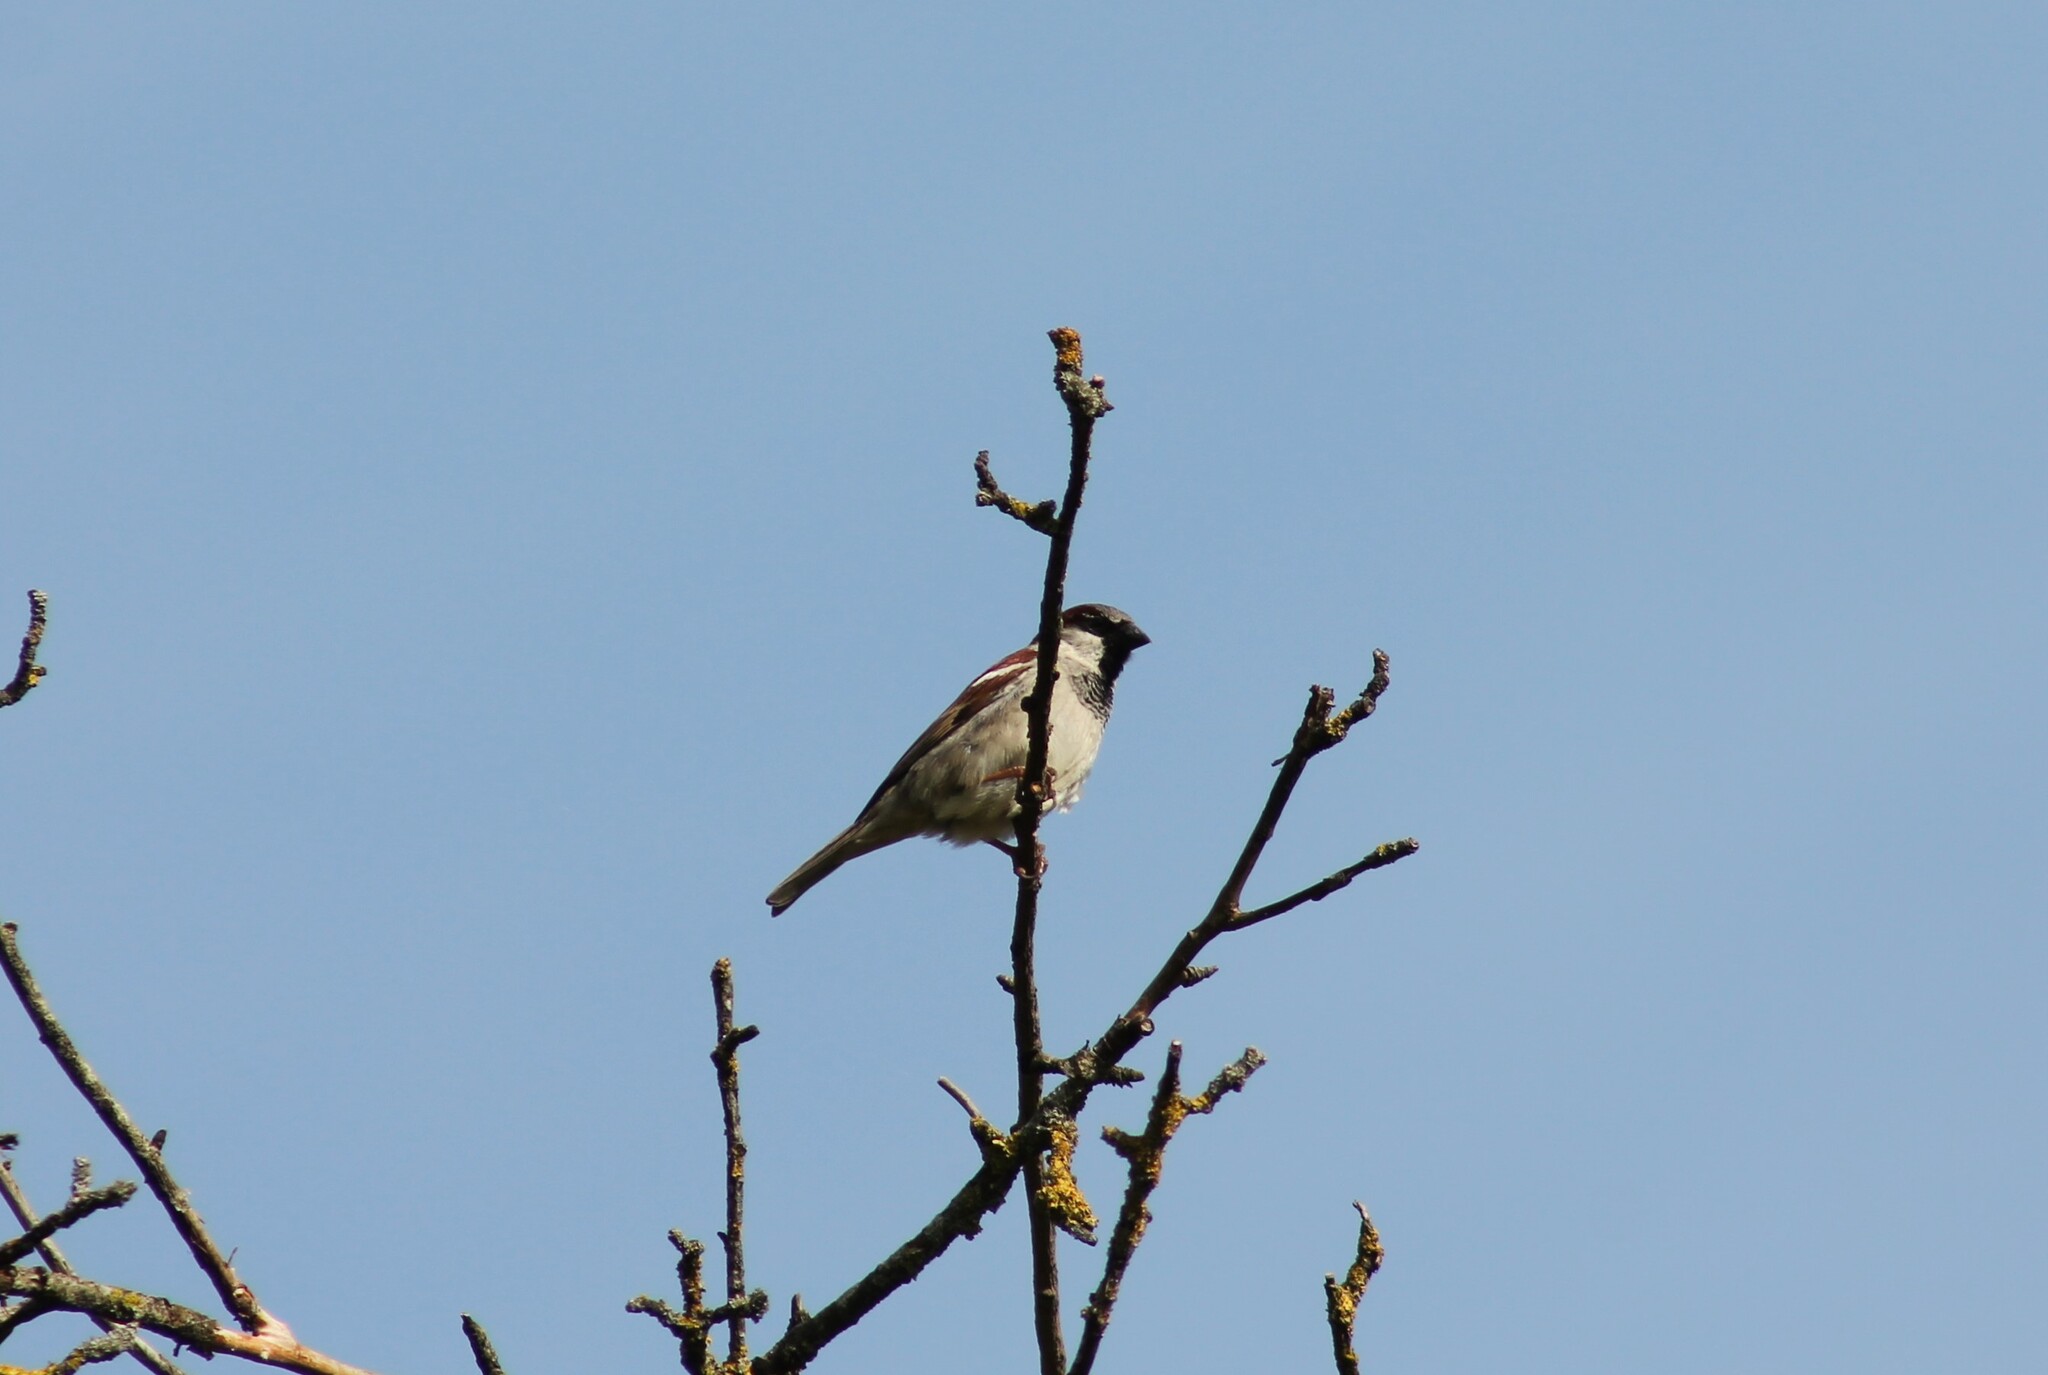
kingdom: Animalia
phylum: Chordata
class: Aves
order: Passeriformes
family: Passeridae
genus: Passer
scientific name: Passer domesticus
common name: House sparrow
